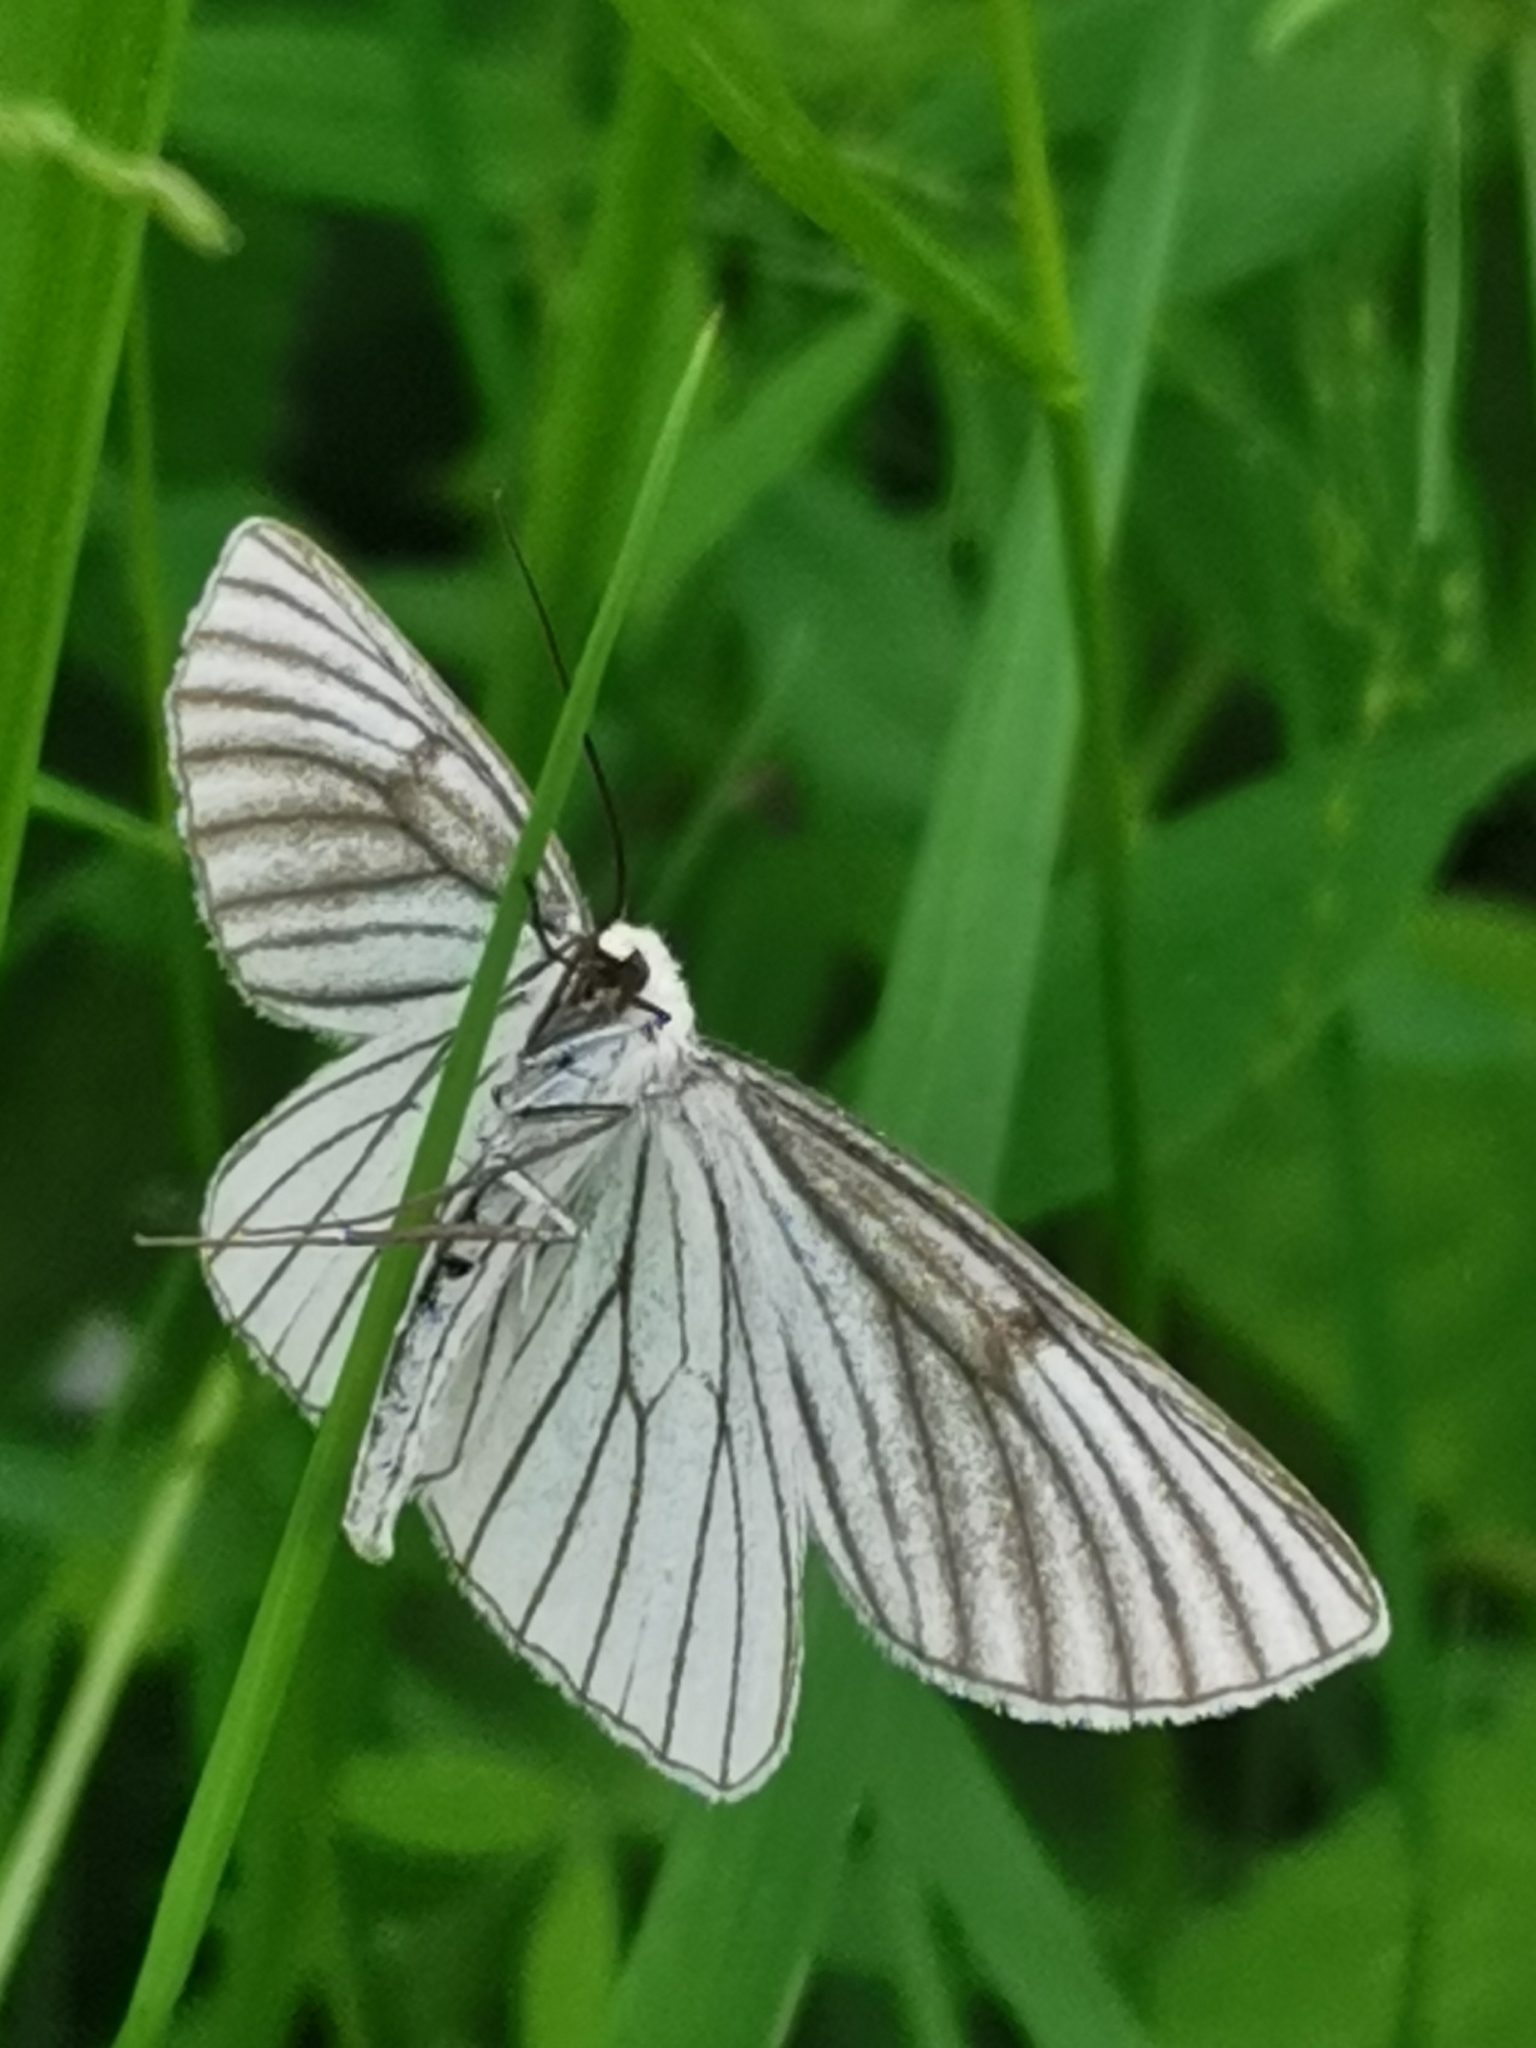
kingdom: Animalia
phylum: Arthropoda
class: Insecta
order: Lepidoptera
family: Geometridae
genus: Siona
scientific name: Siona lineata
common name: Black-veined moth
